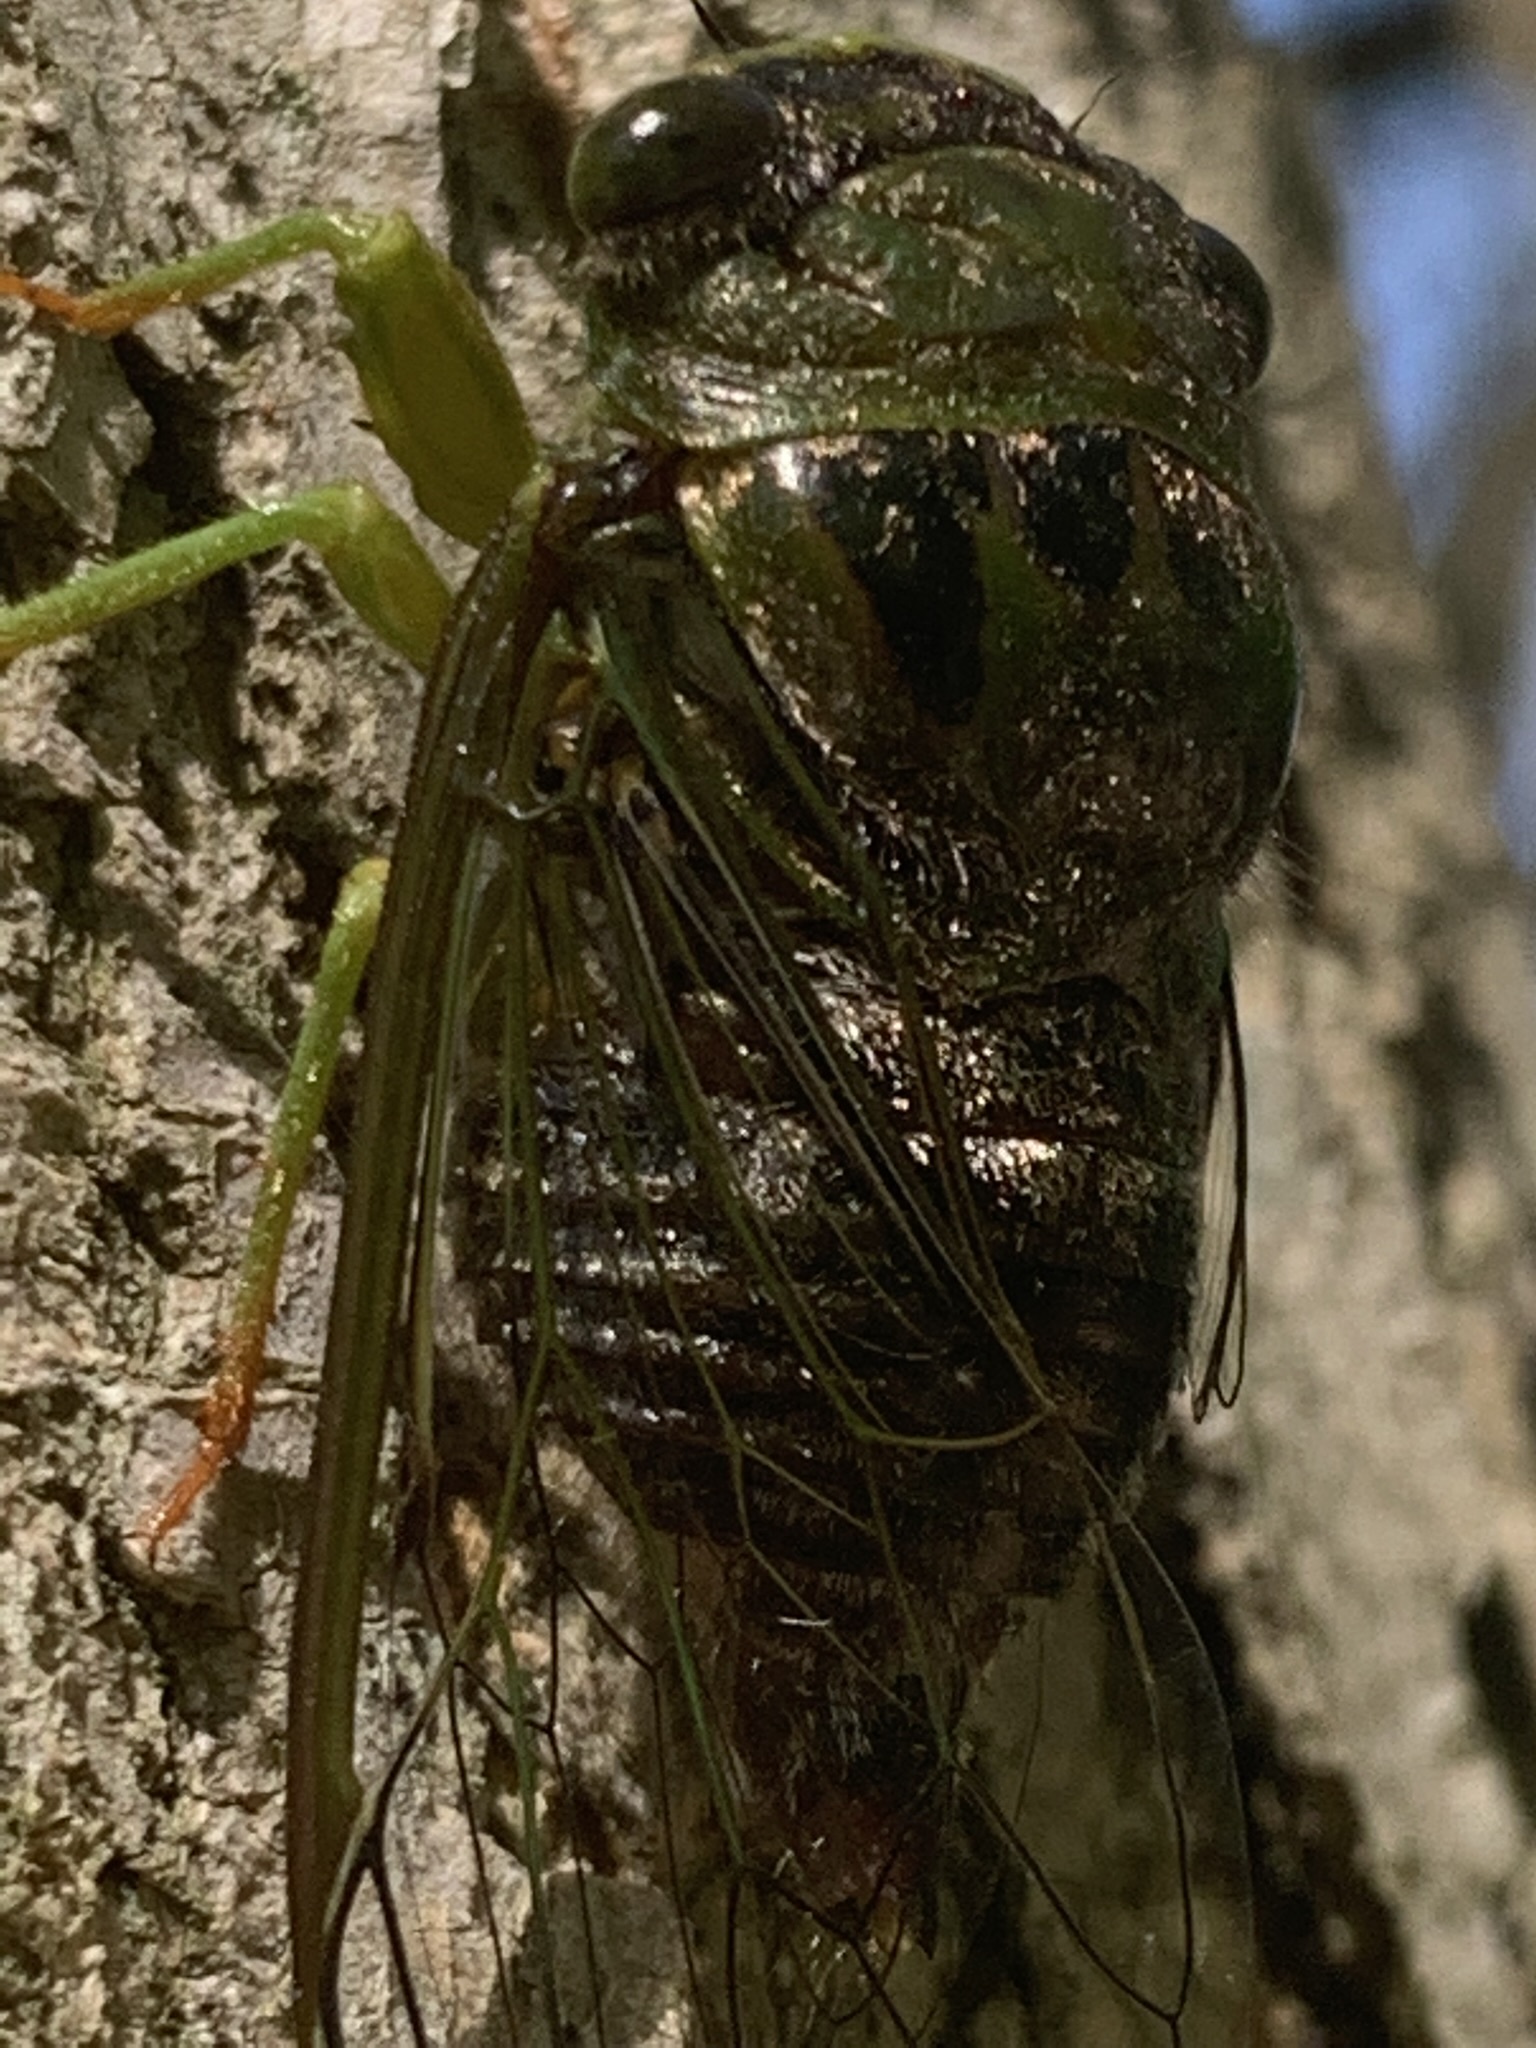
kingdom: Animalia
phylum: Arthropoda
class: Insecta
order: Hemiptera
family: Cicadidae
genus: Acanthoventris
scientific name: Acanthoventris drewseni
